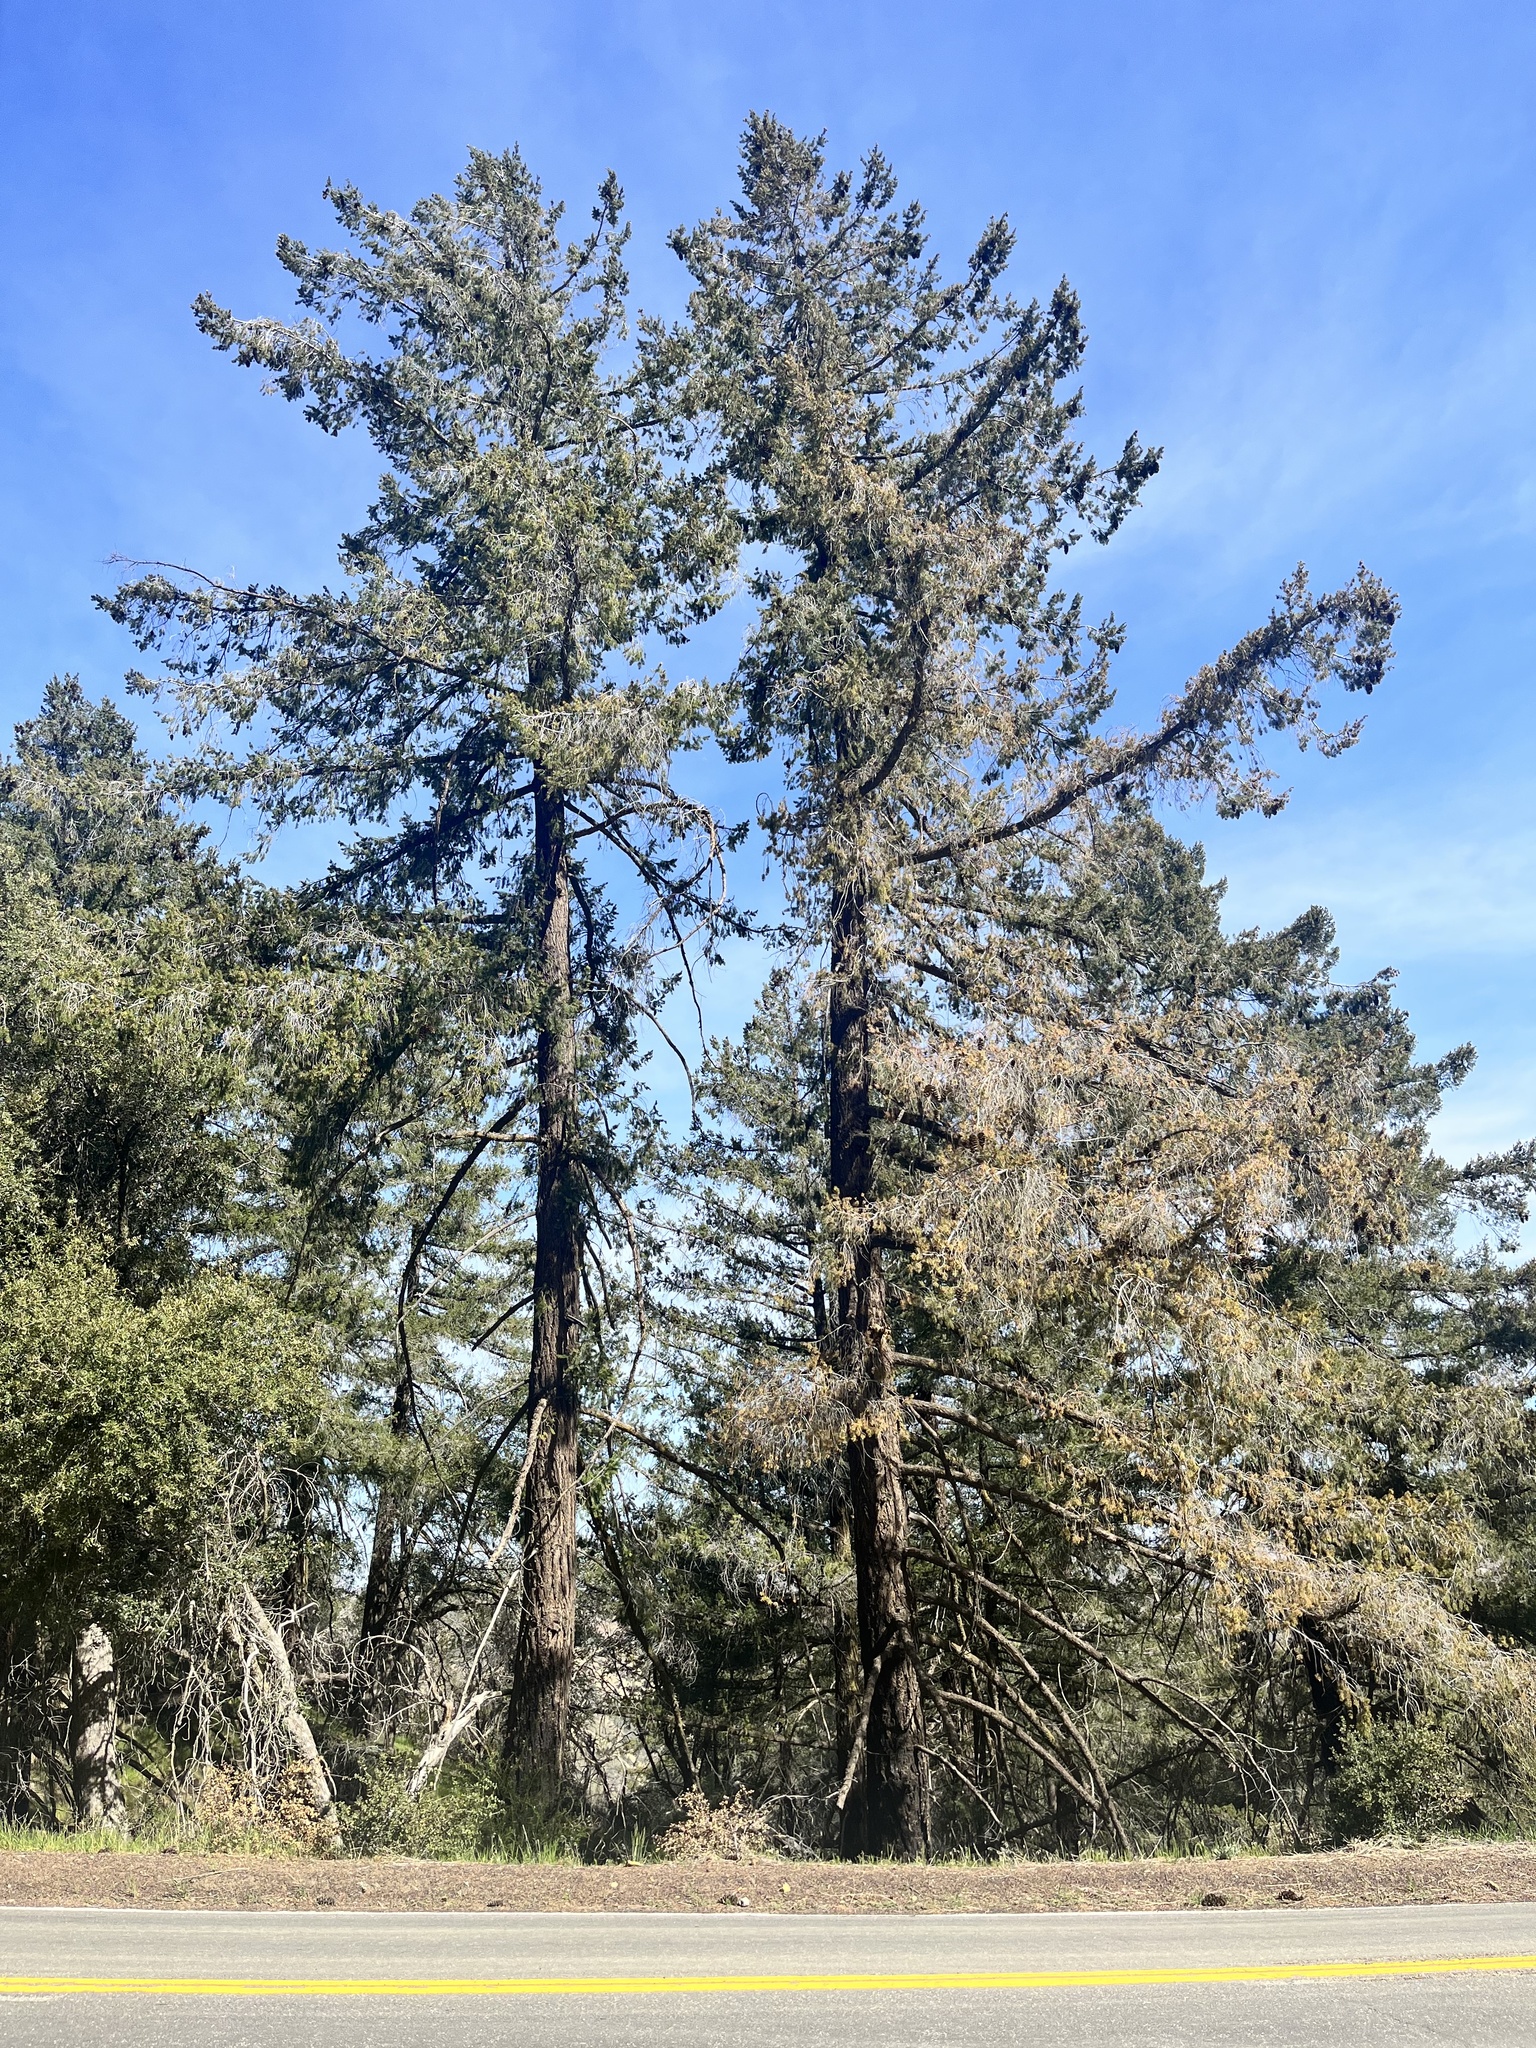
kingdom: Plantae
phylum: Tracheophyta
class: Pinopsida
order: Pinales
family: Pinaceae
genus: Pseudotsuga
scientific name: Pseudotsuga macrocarpa
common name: Big-cone douglas-fir
